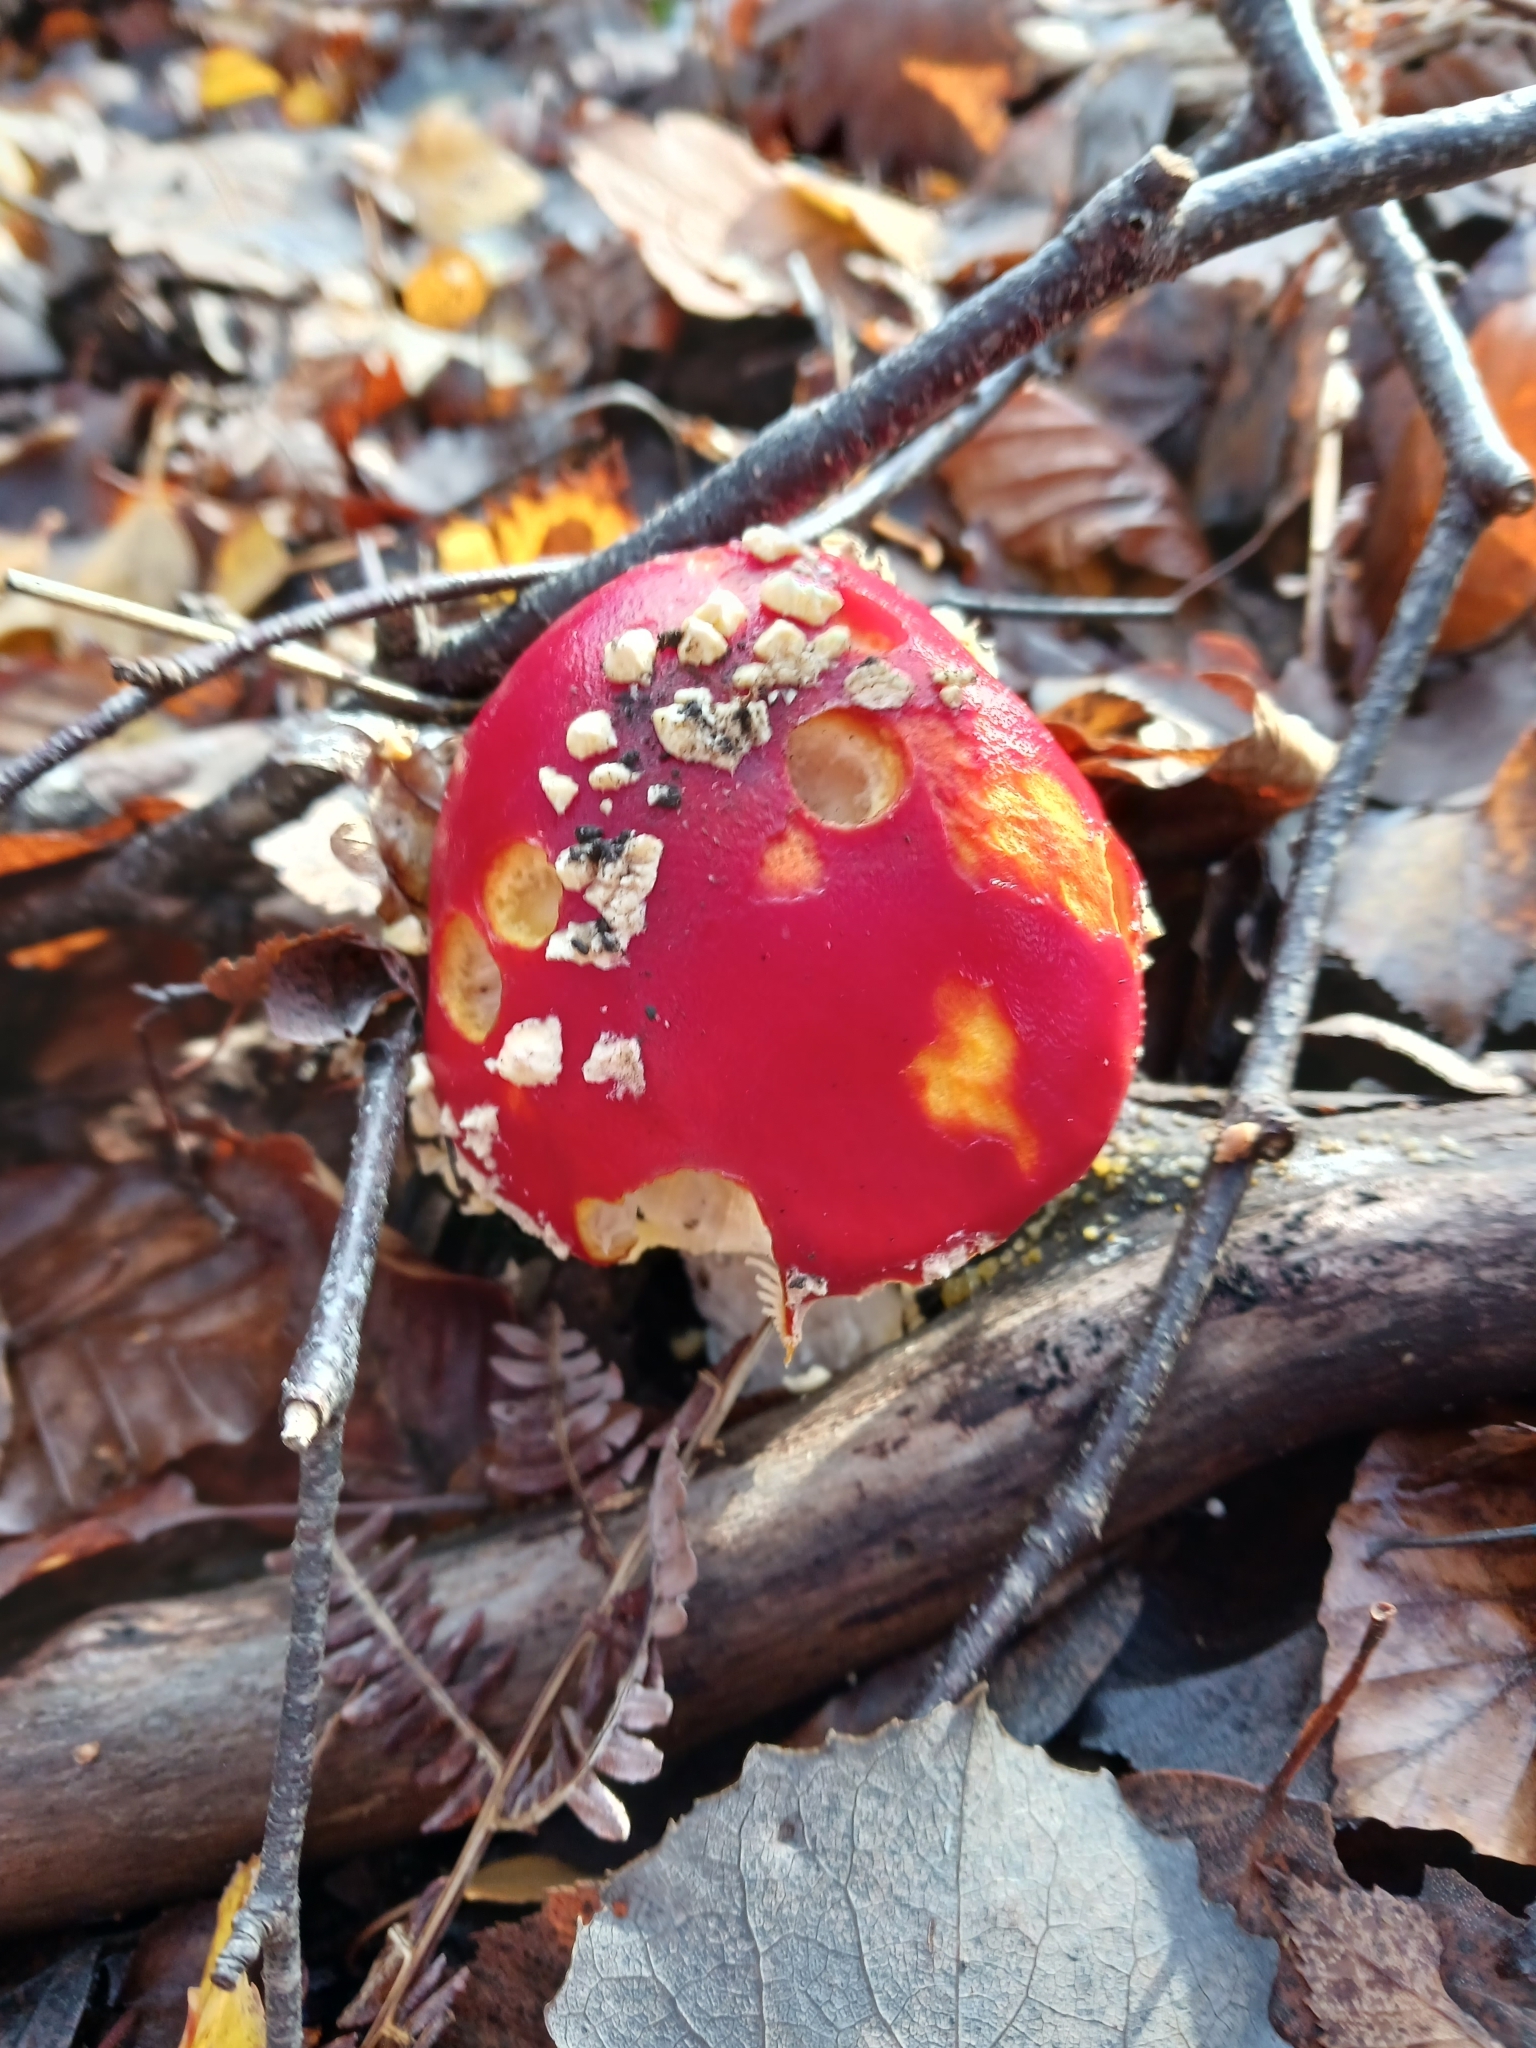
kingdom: Fungi
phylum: Basidiomycota
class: Agaricomycetes
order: Agaricales
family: Amanitaceae
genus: Amanita
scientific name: Amanita muscaria
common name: Fly agaric
